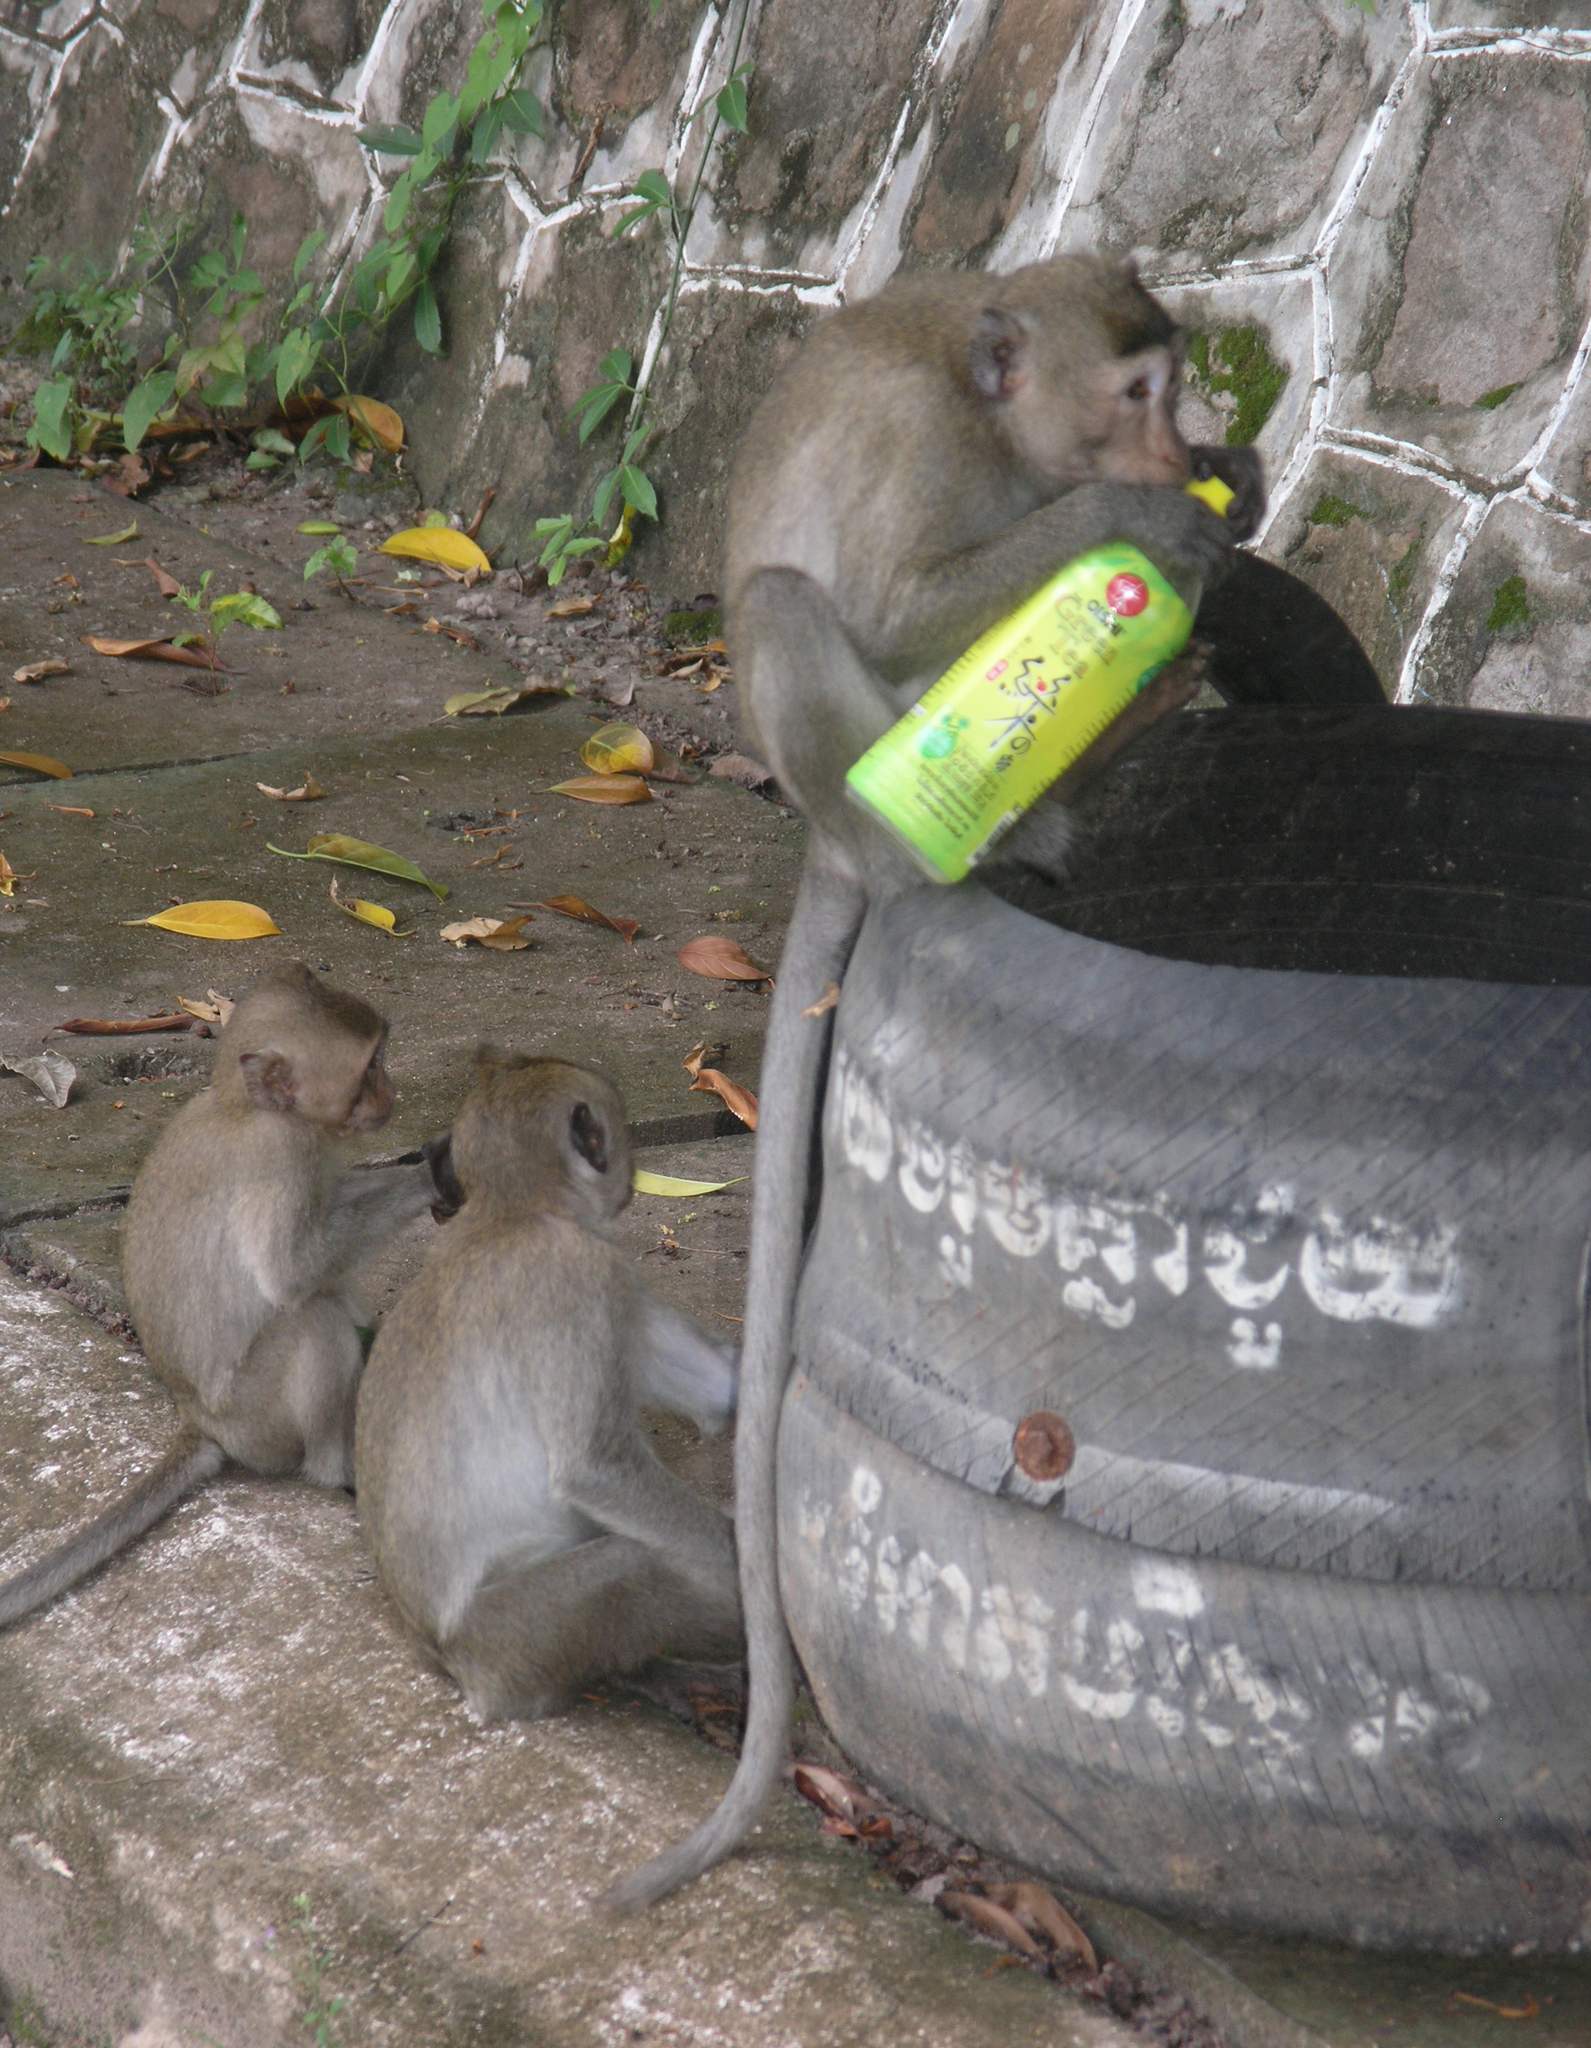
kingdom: Animalia
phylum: Chordata
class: Mammalia
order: Primates
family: Cercopithecidae
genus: Macaca
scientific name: Macaca fascicularis
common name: Crab-eating macaque
